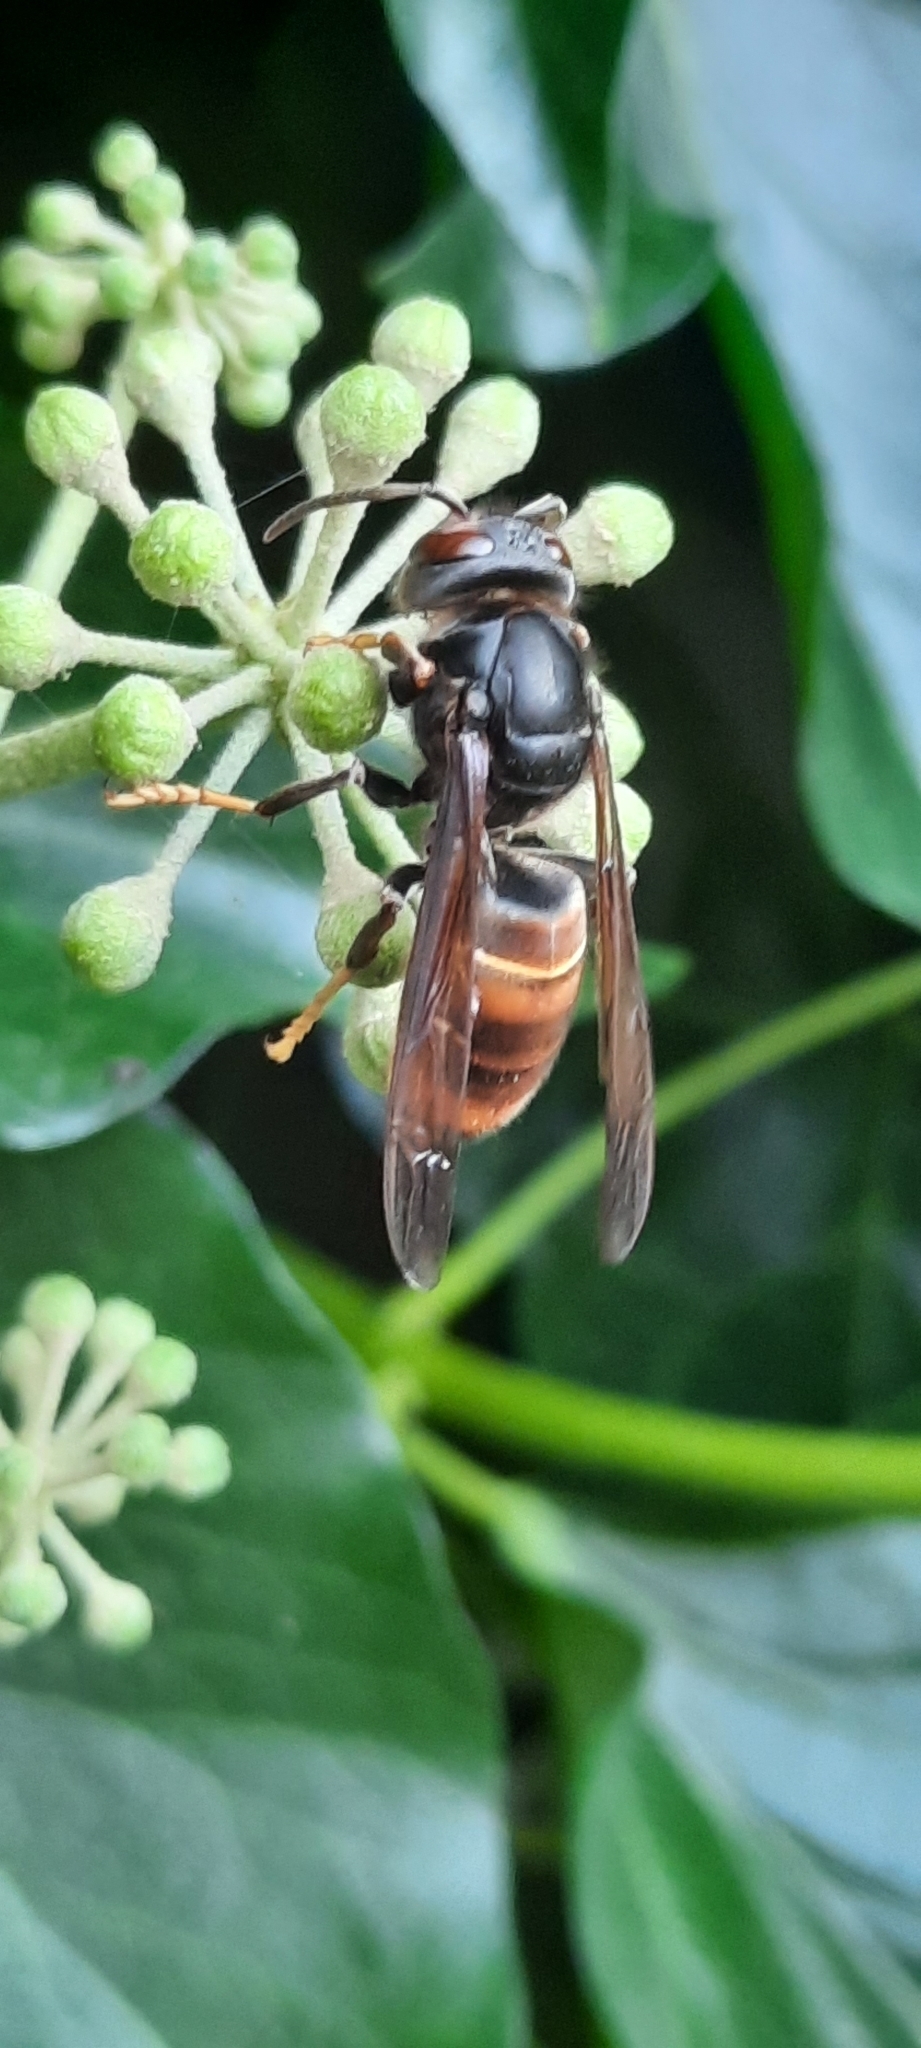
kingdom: Animalia
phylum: Arthropoda
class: Insecta
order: Hymenoptera
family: Vespidae
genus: Vespa
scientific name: Vespa velutina
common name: Asian hornet
